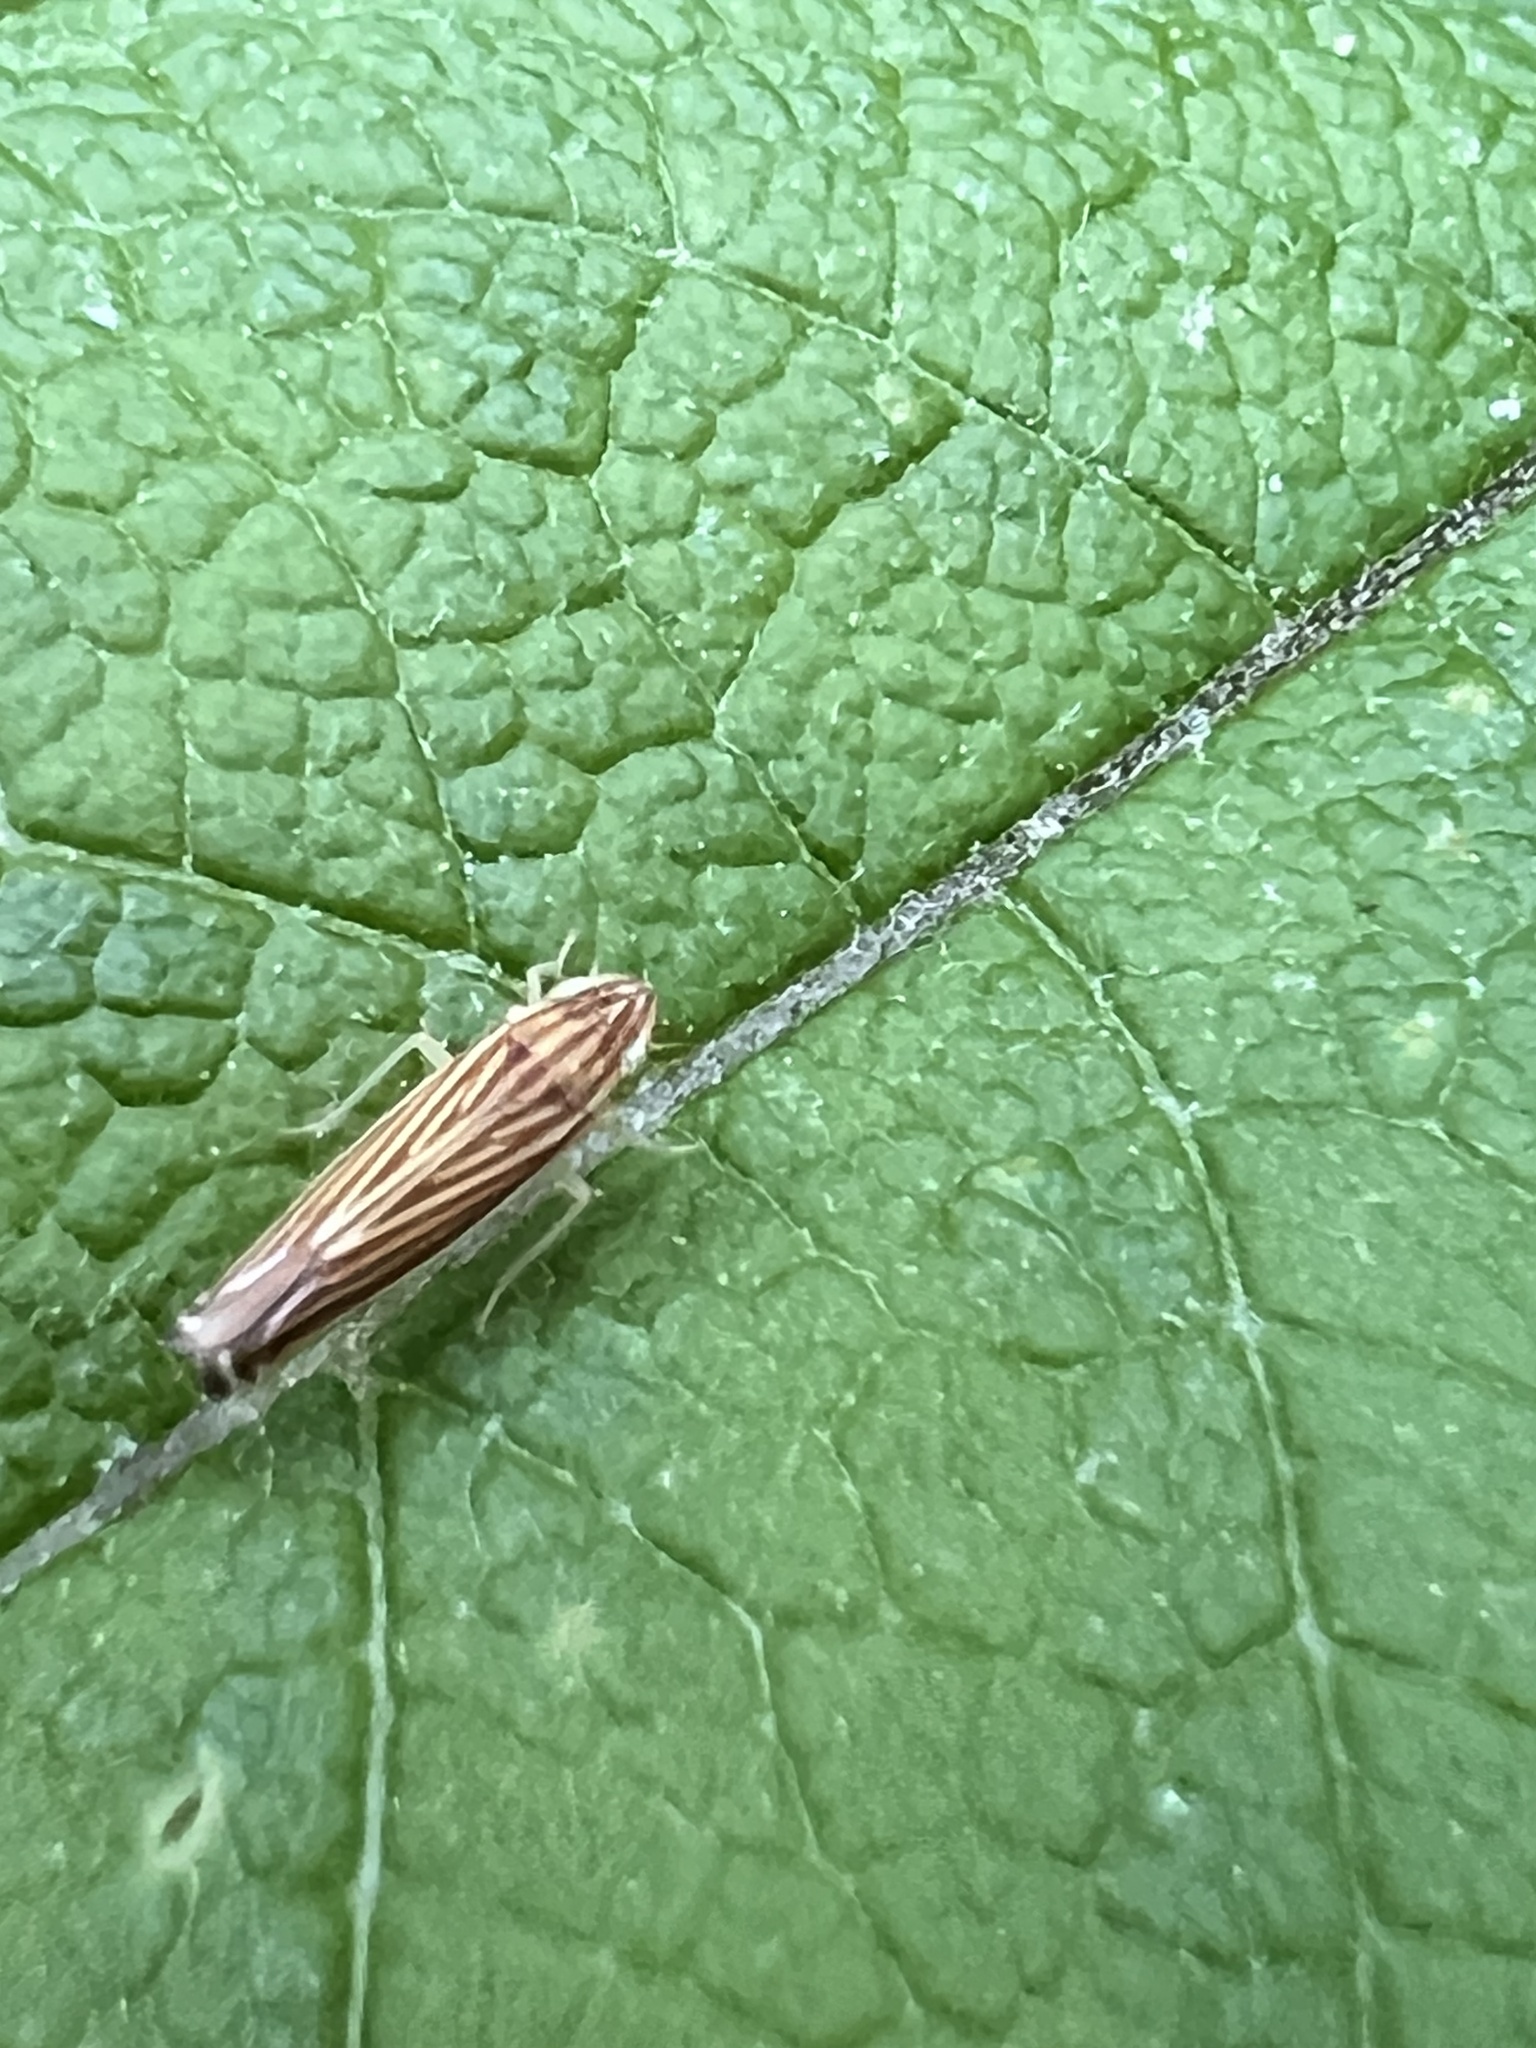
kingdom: Animalia
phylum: Arthropoda
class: Insecta
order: Hemiptera
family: Cicadellidae
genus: Sibovia
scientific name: Sibovia occatoria
